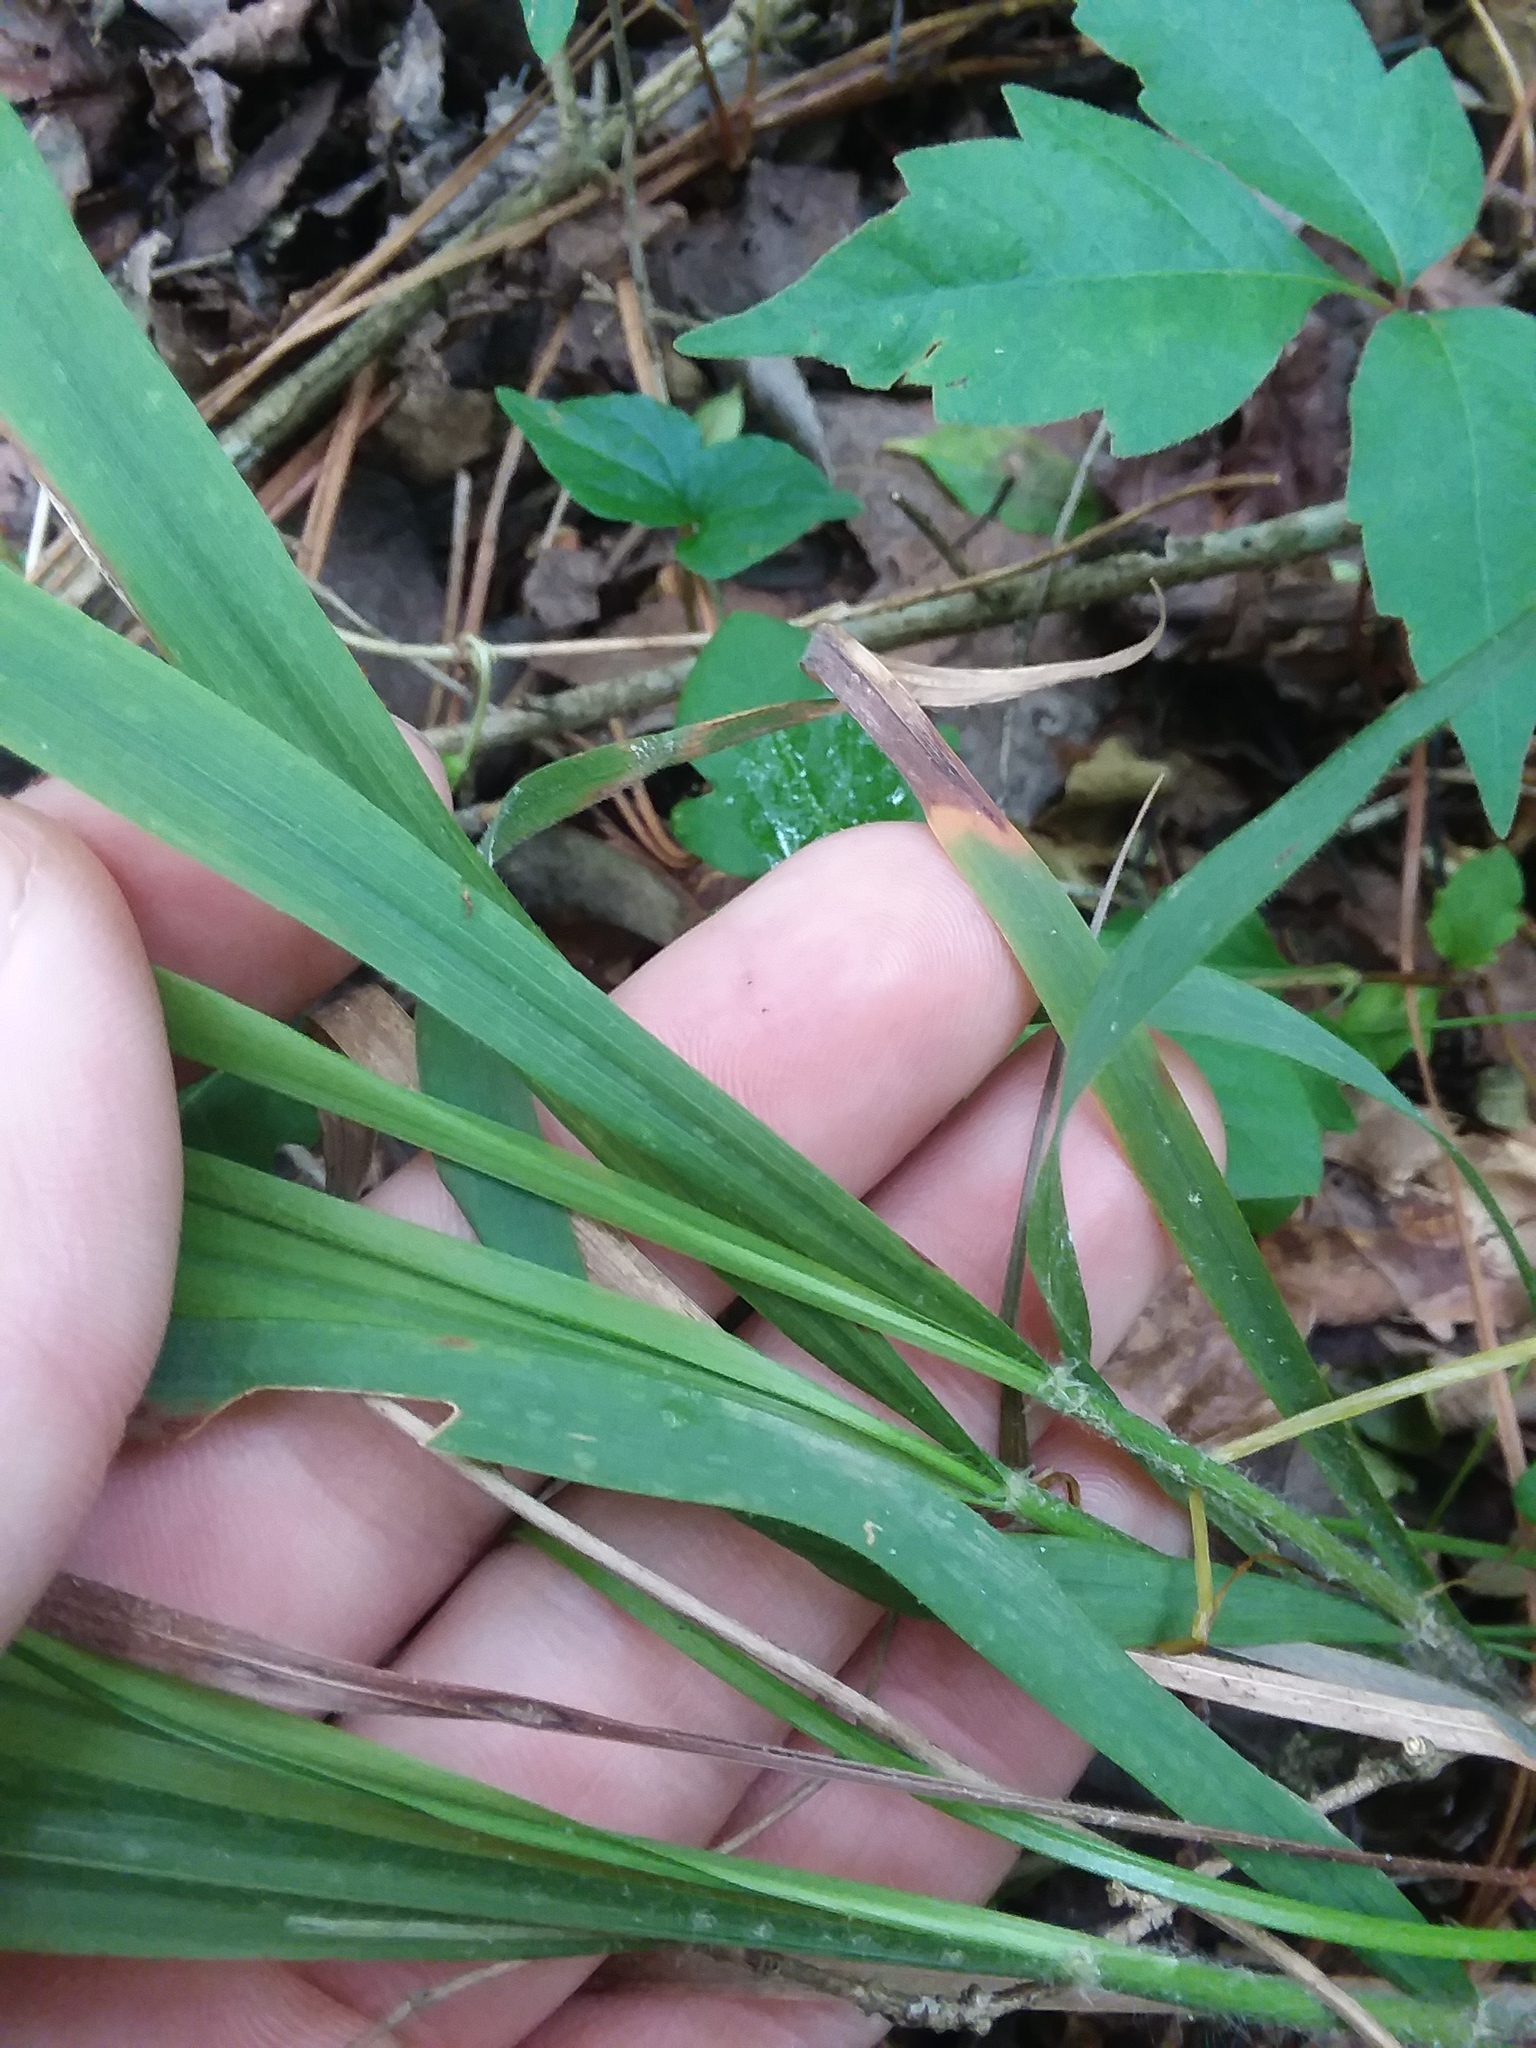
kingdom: Plantae
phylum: Tracheophyta
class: Liliopsida
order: Poales
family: Poaceae
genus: Chasmanthium
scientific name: Chasmanthium laxum
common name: Slender chasmanthium
